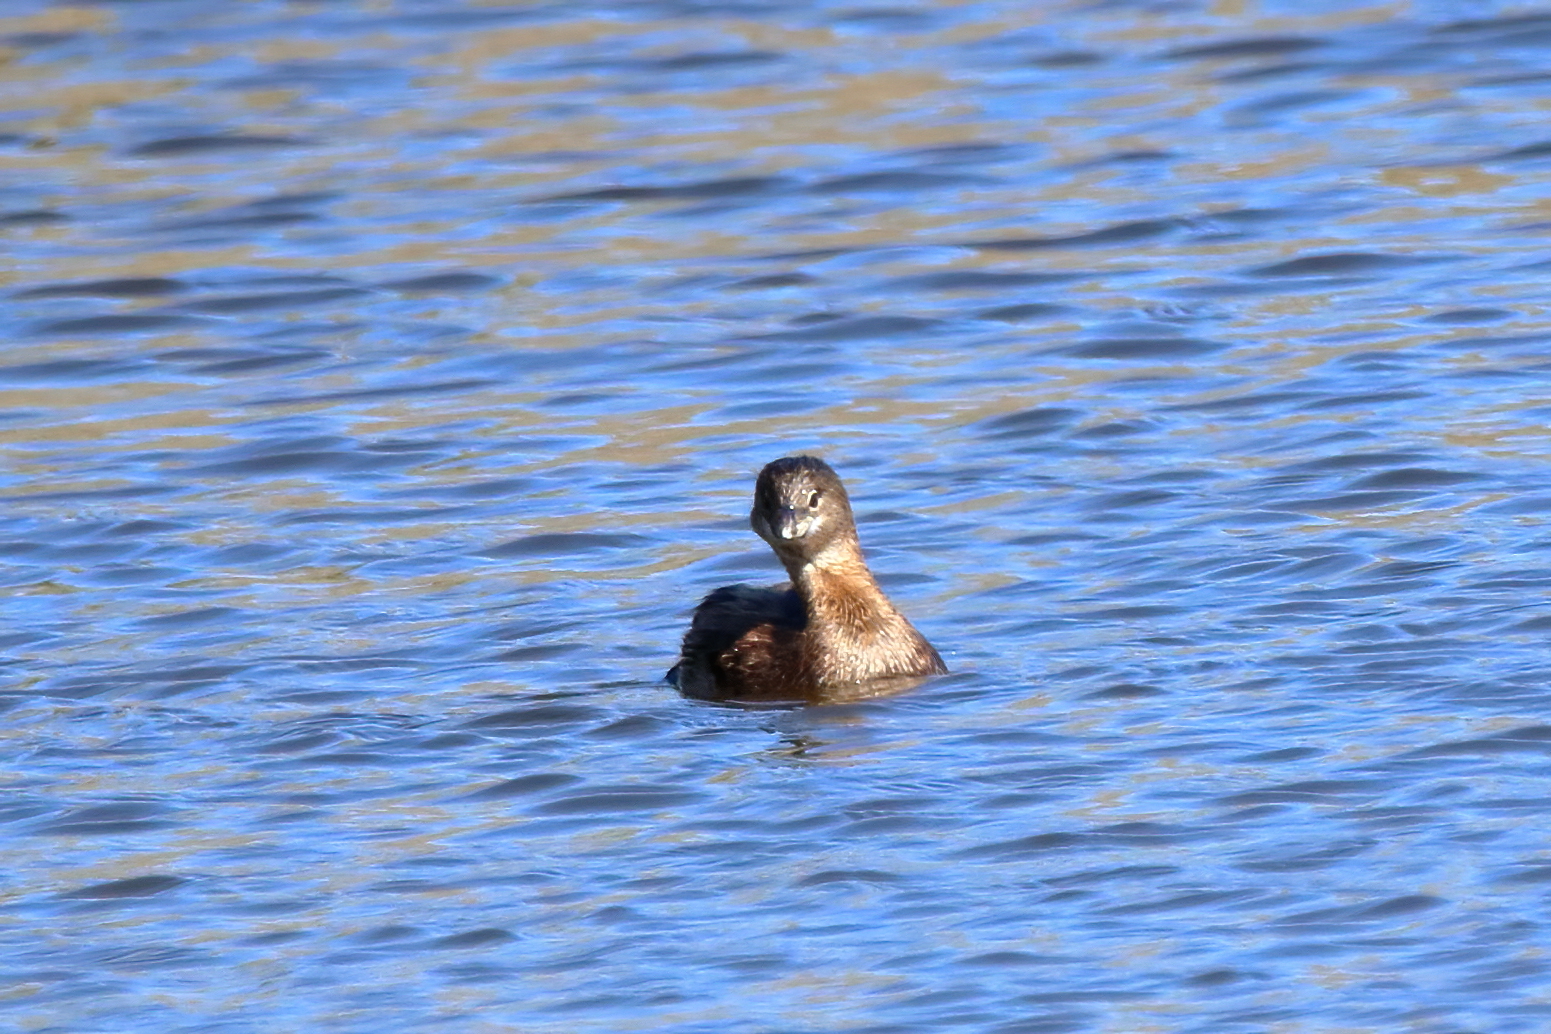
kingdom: Animalia
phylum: Chordata
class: Aves
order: Podicipediformes
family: Podicipedidae
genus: Podilymbus
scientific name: Podilymbus podiceps
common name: Pied-billed grebe
